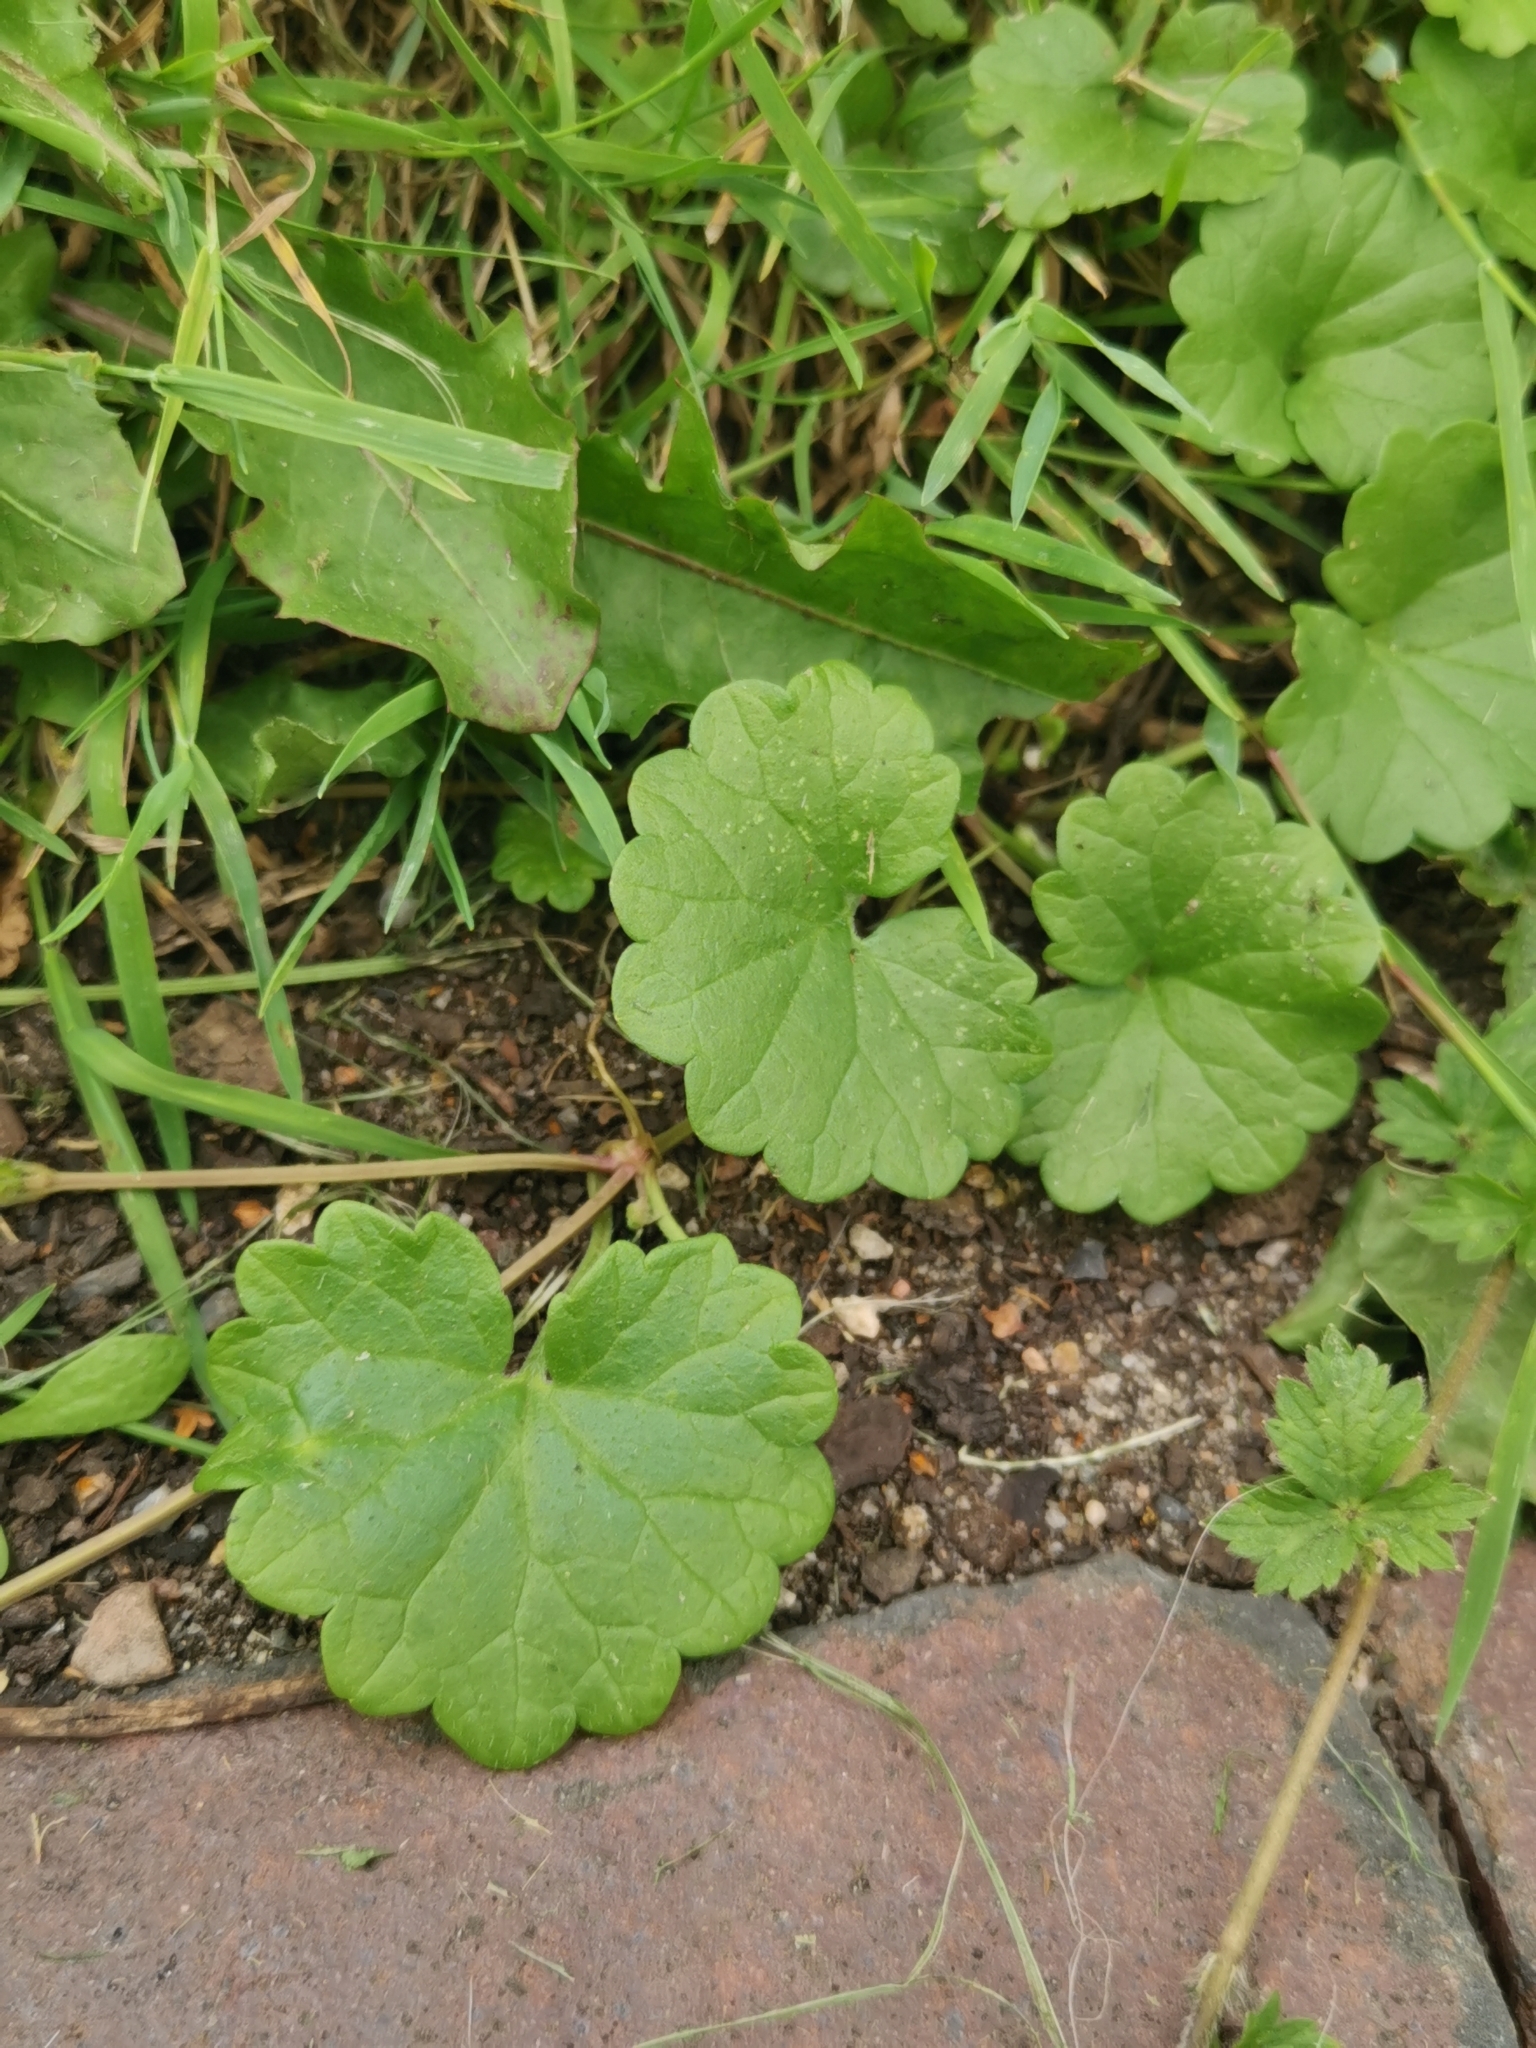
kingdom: Plantae
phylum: Tracheophyta
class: Magnoliopsida
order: Lamiales
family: Lamiaceae
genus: Glechoma
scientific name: Glechoma hederacea
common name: Ground ivy
